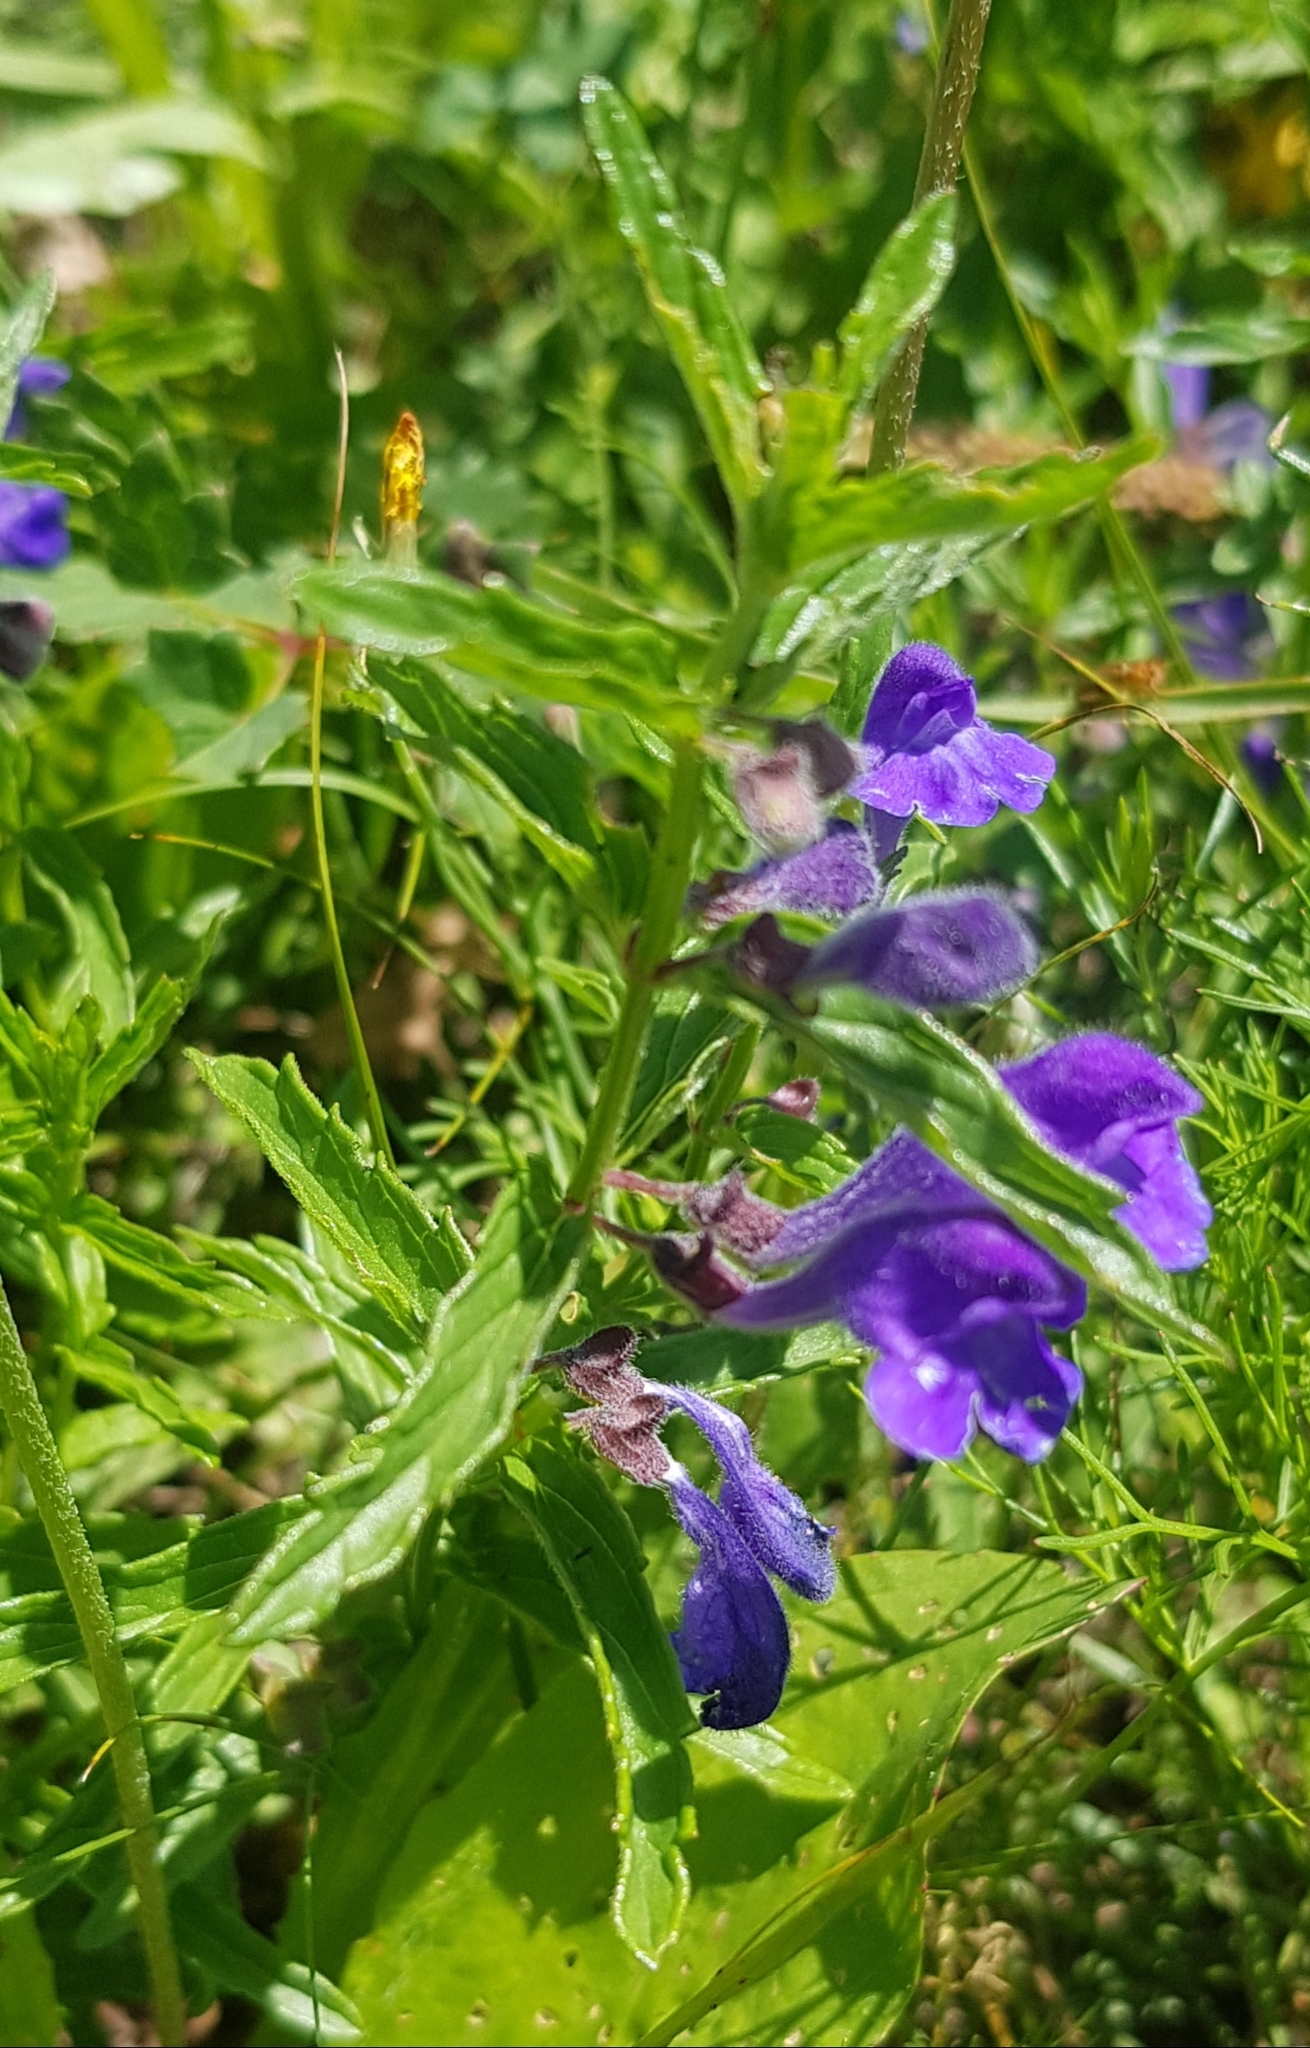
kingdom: Plantae
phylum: Tracheophyta
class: Magnoliopsida
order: Lamiales
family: Lamiaceae
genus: Scutellaria
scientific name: Scutellaria scordiifolia
